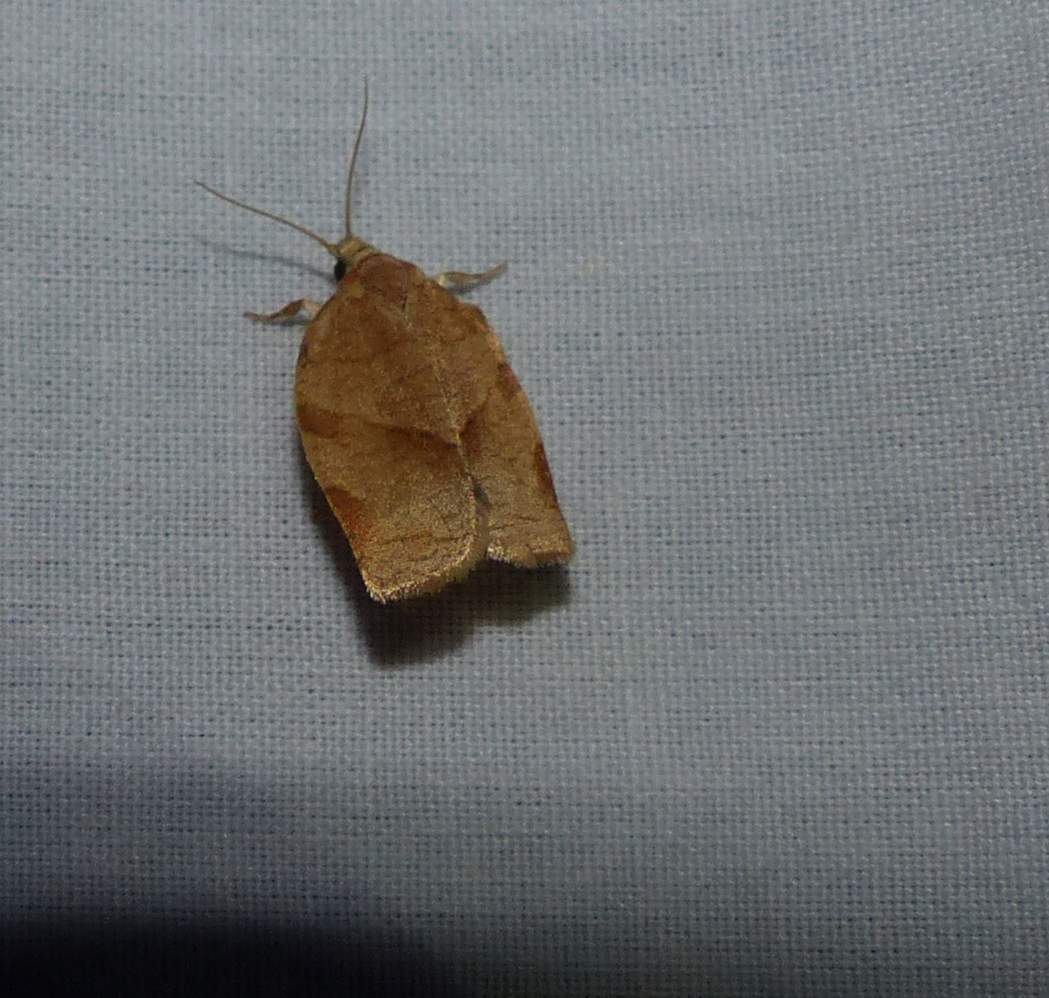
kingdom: Animalia
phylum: Arthropoda
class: Insecta
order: Lepidoptera
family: Tortricidae
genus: Choristoneura
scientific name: Choristoneura rosaceana
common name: Oblique-banded leafroller moth
